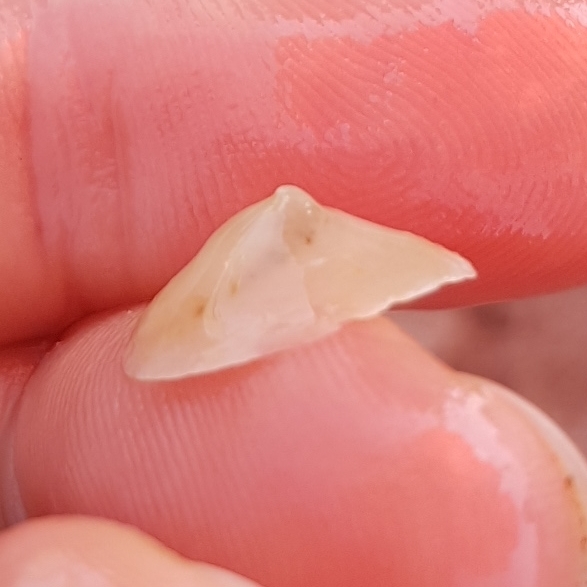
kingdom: Animalia
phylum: Mollusca
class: Gastropoda
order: Littorinimorpha
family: Calyptraeidae
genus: Calyptraea
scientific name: Calyptraea chinensis
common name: Chinaman's hat
